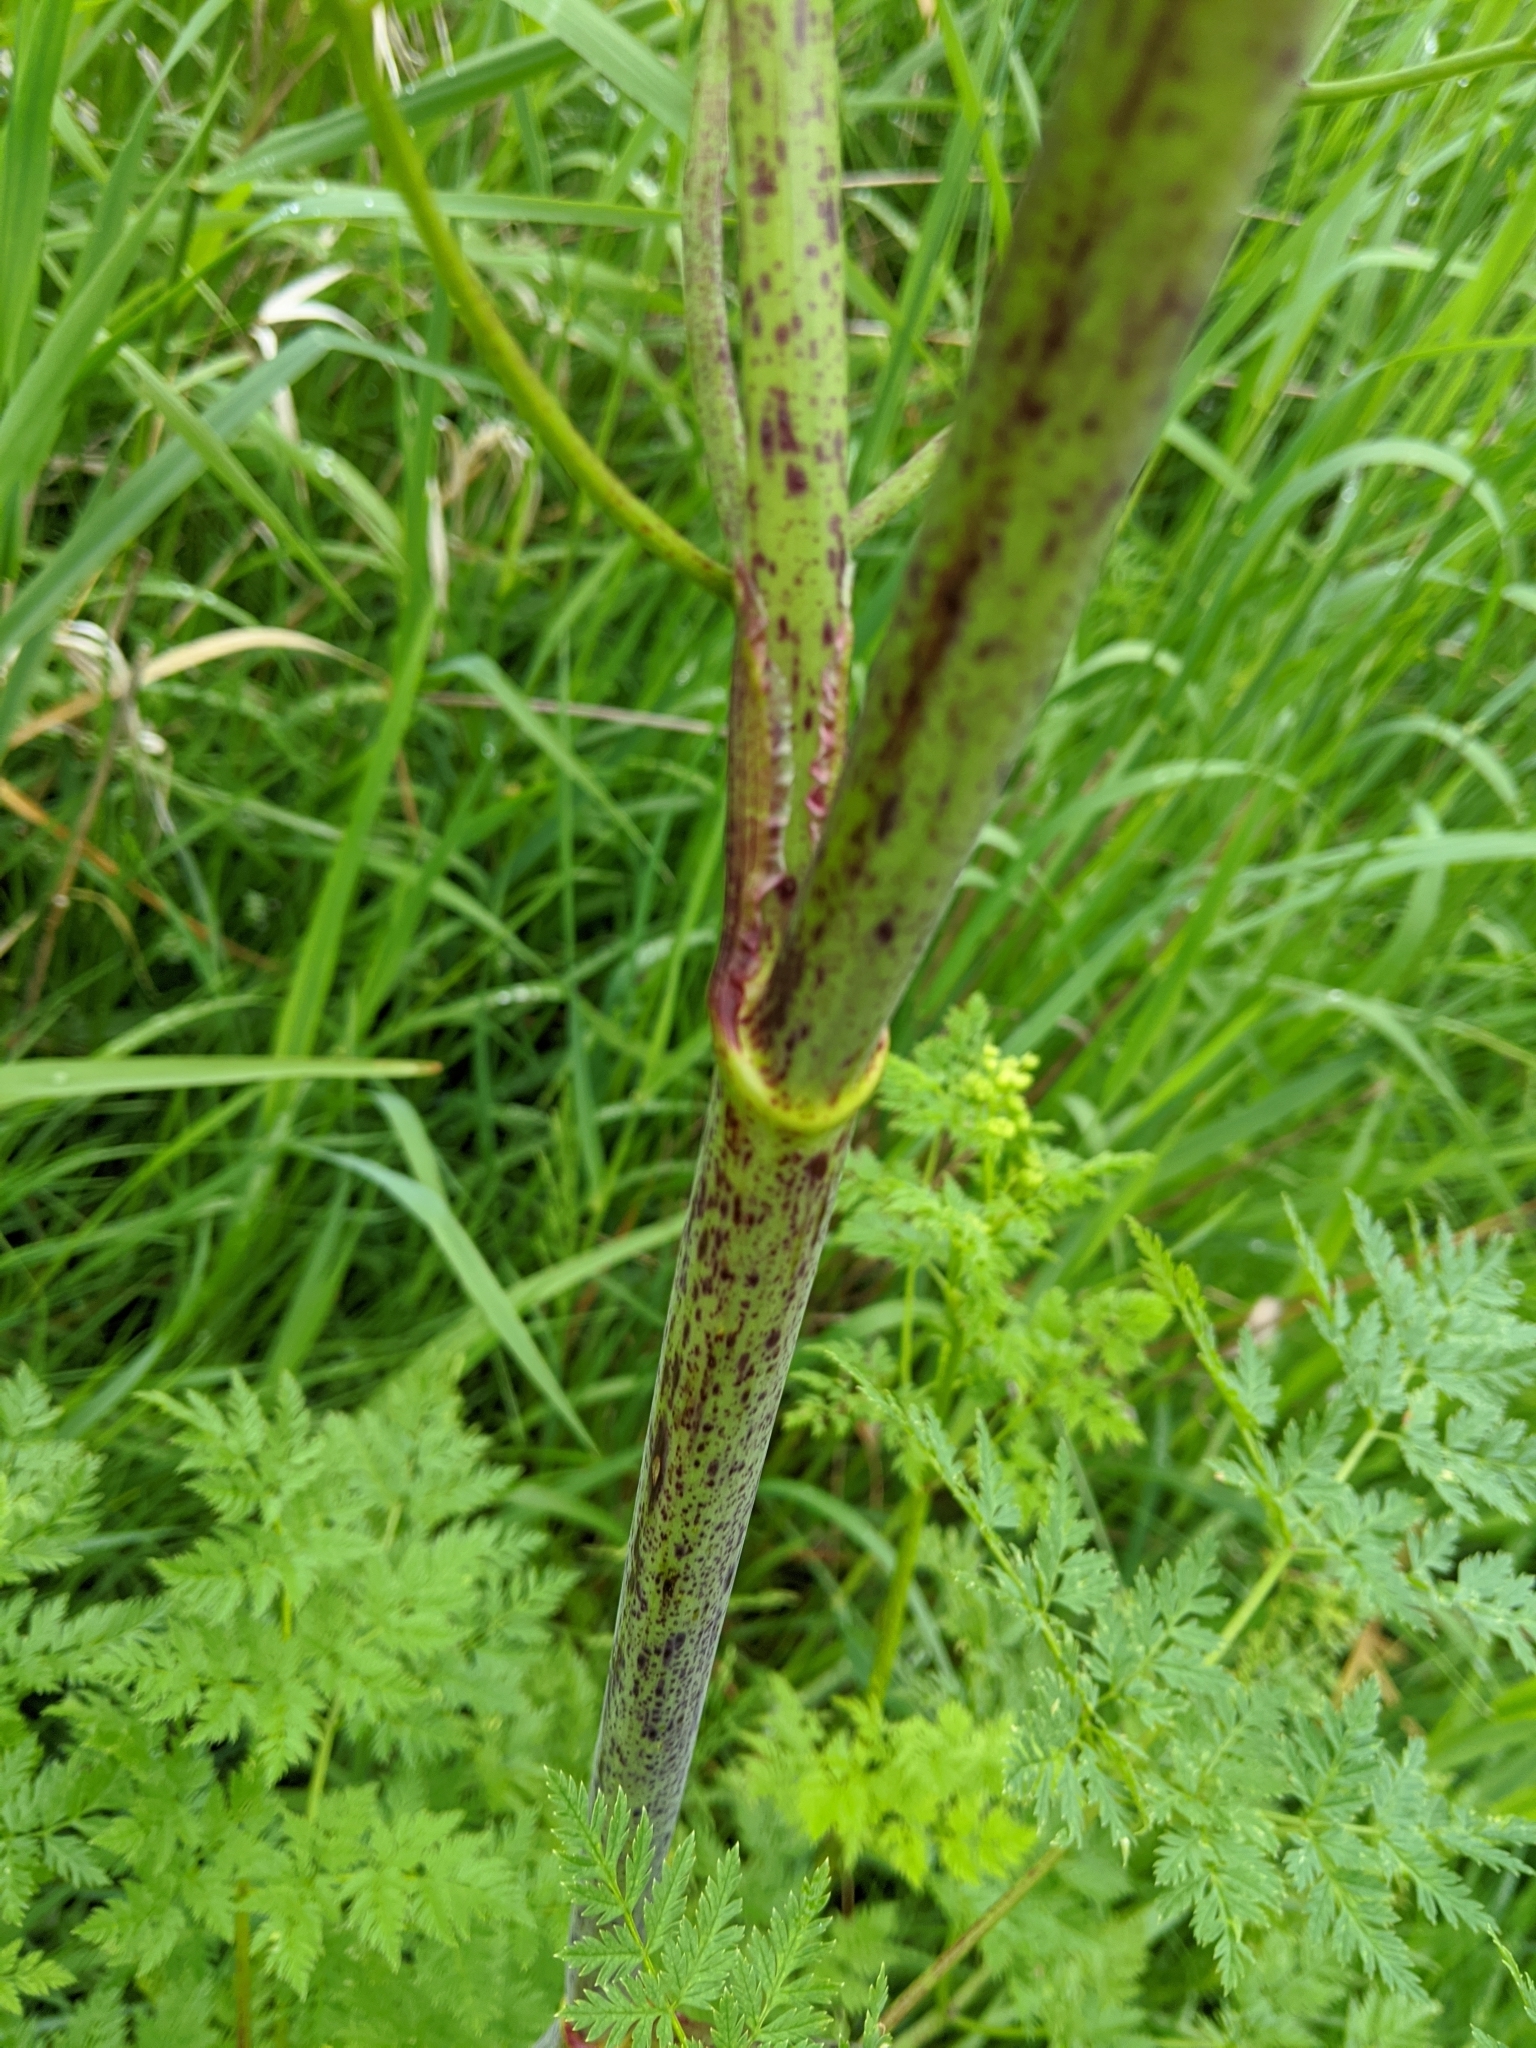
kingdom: Plantae
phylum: Tracheophyta
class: Magnoliopsida
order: Apiales
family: Apiaceae
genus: Conium
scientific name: Conium maculatum
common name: Hemlock
